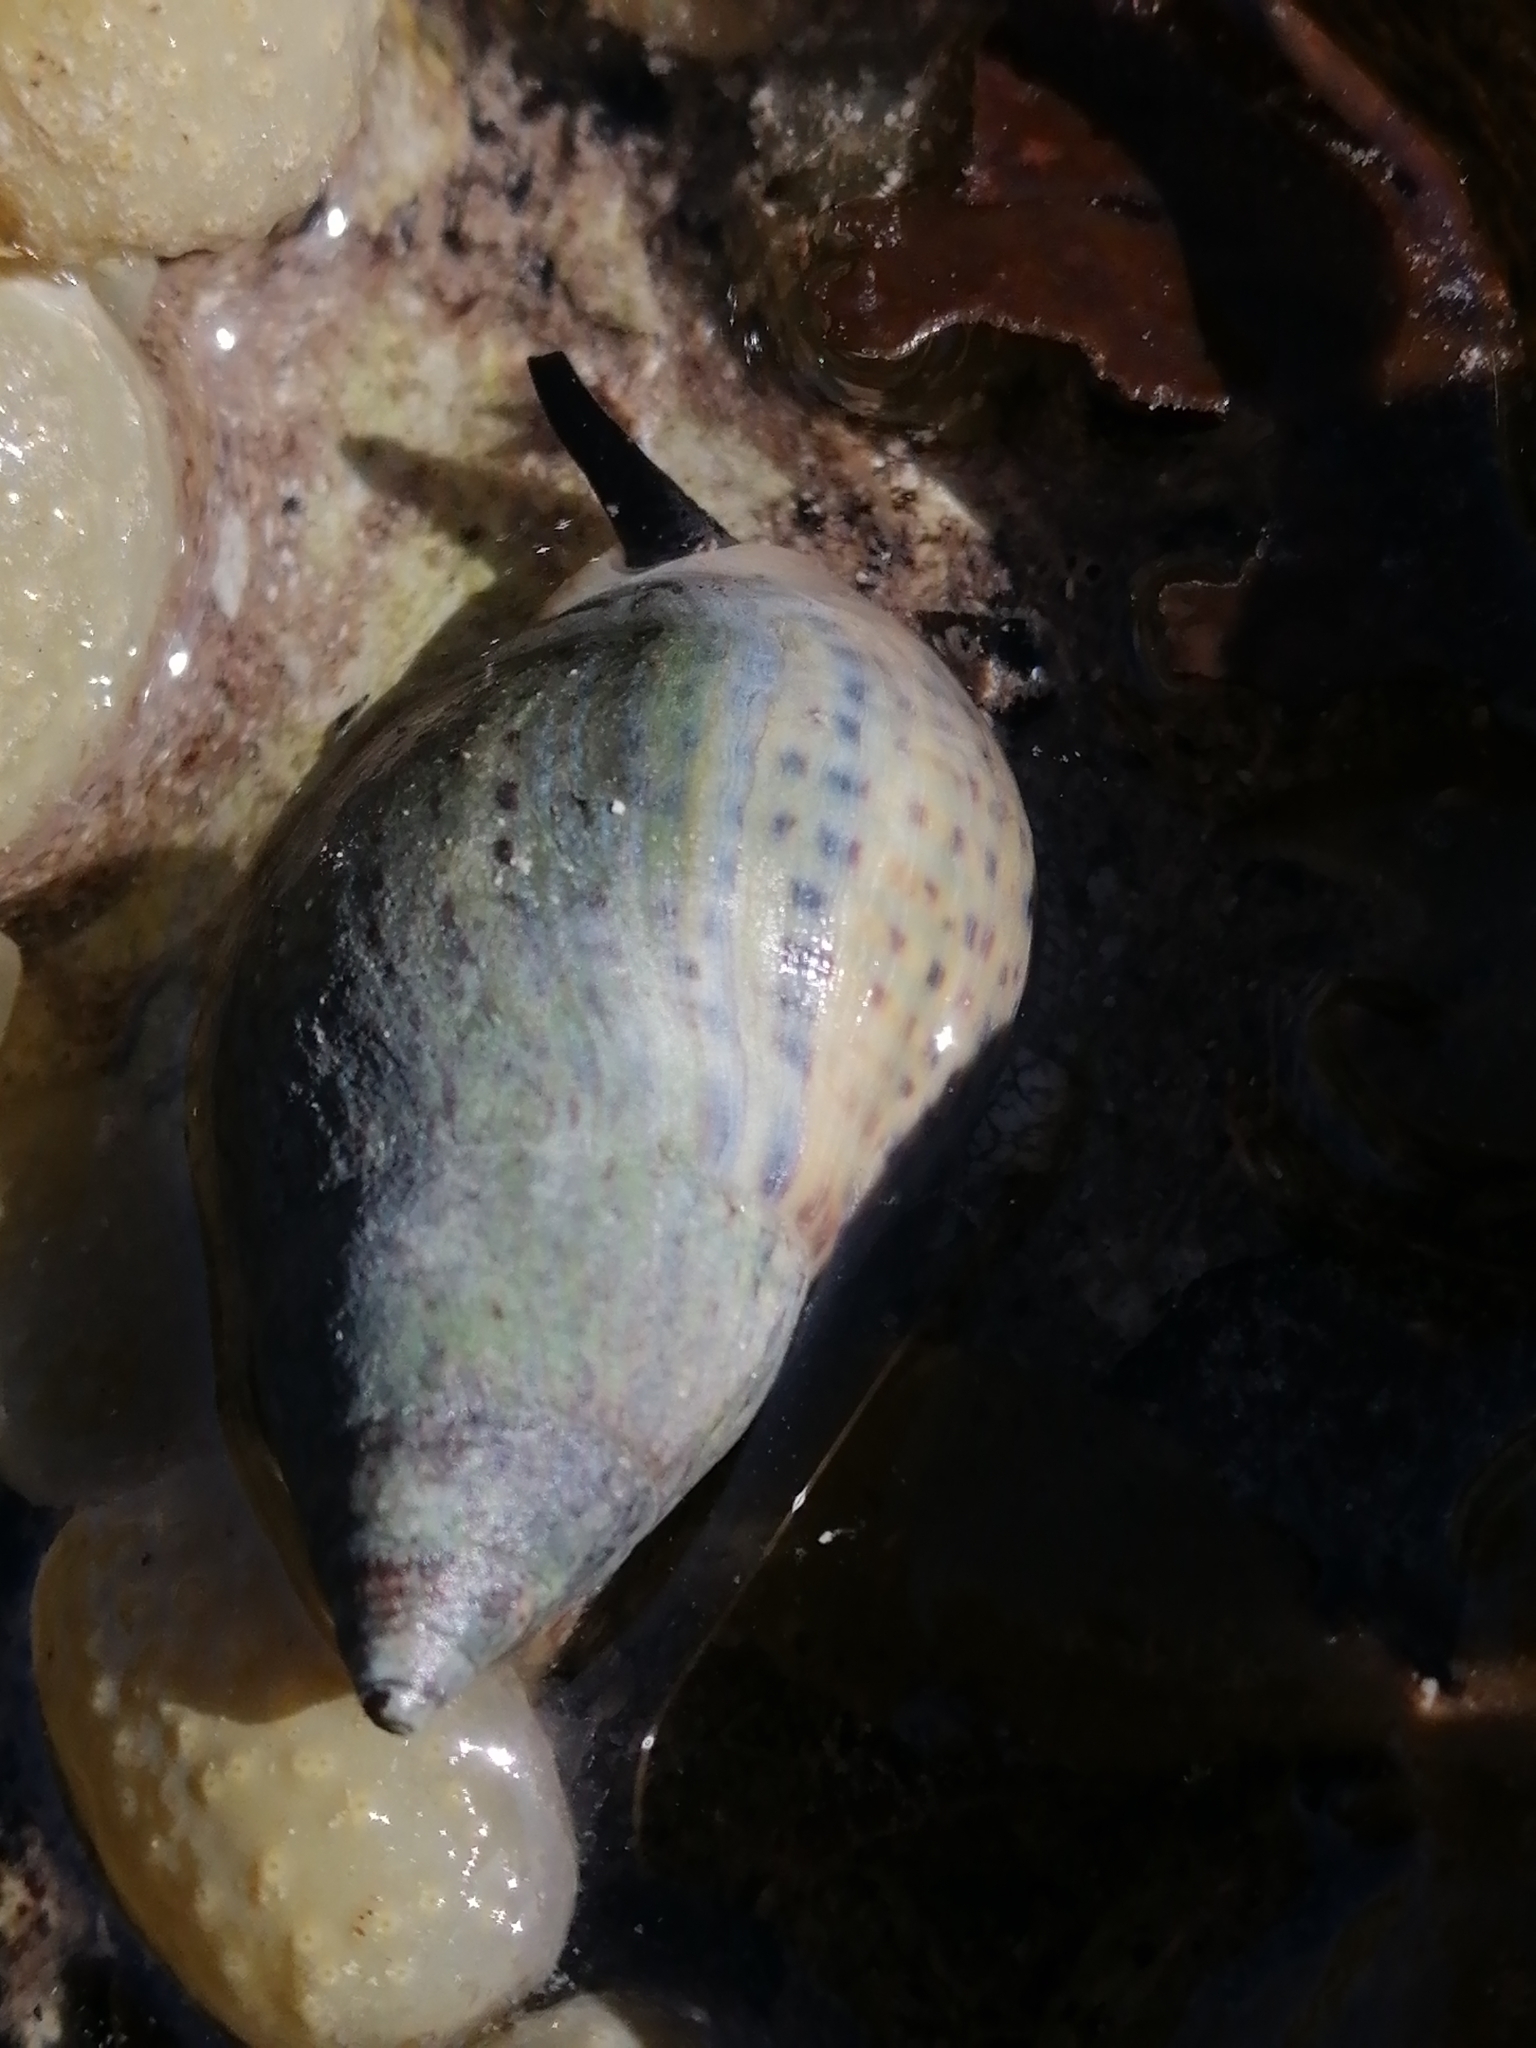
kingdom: Animalia
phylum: Mollusca
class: Gastropoda
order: Neogastropoda
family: Cominellidae
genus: Cominella
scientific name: Cominella maculosa
